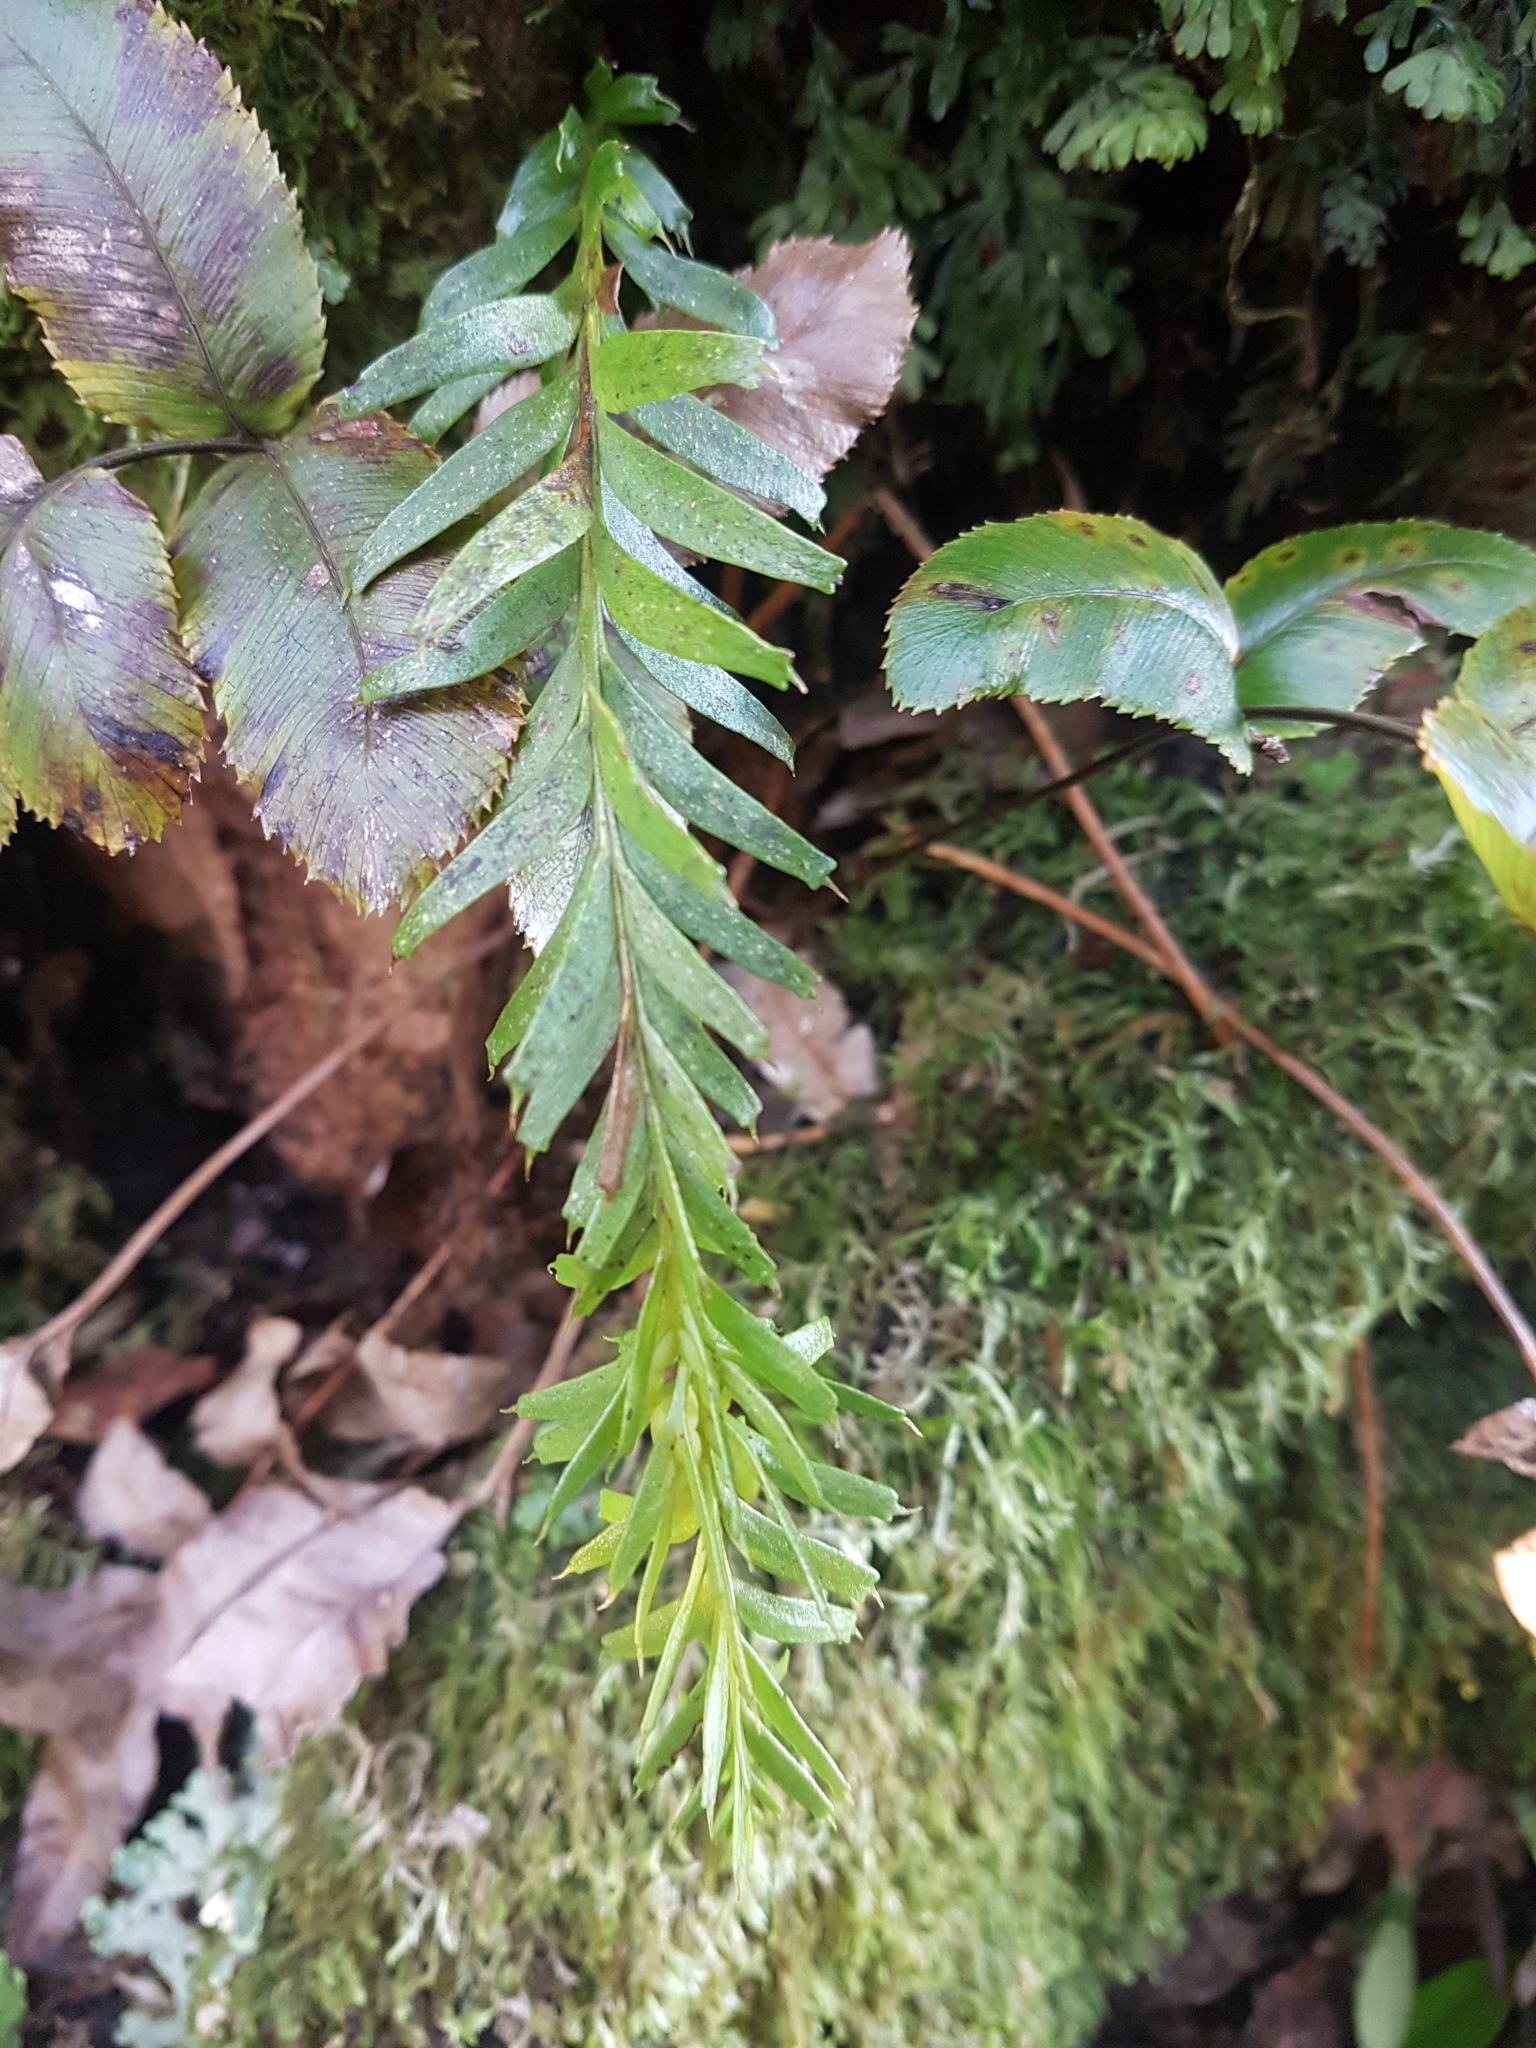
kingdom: Plantae
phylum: Tracheophyta
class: Polypodiopsida
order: Psilotales
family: Psilotaceae
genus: Tmesipteris
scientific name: Tmesipteris tannensis
